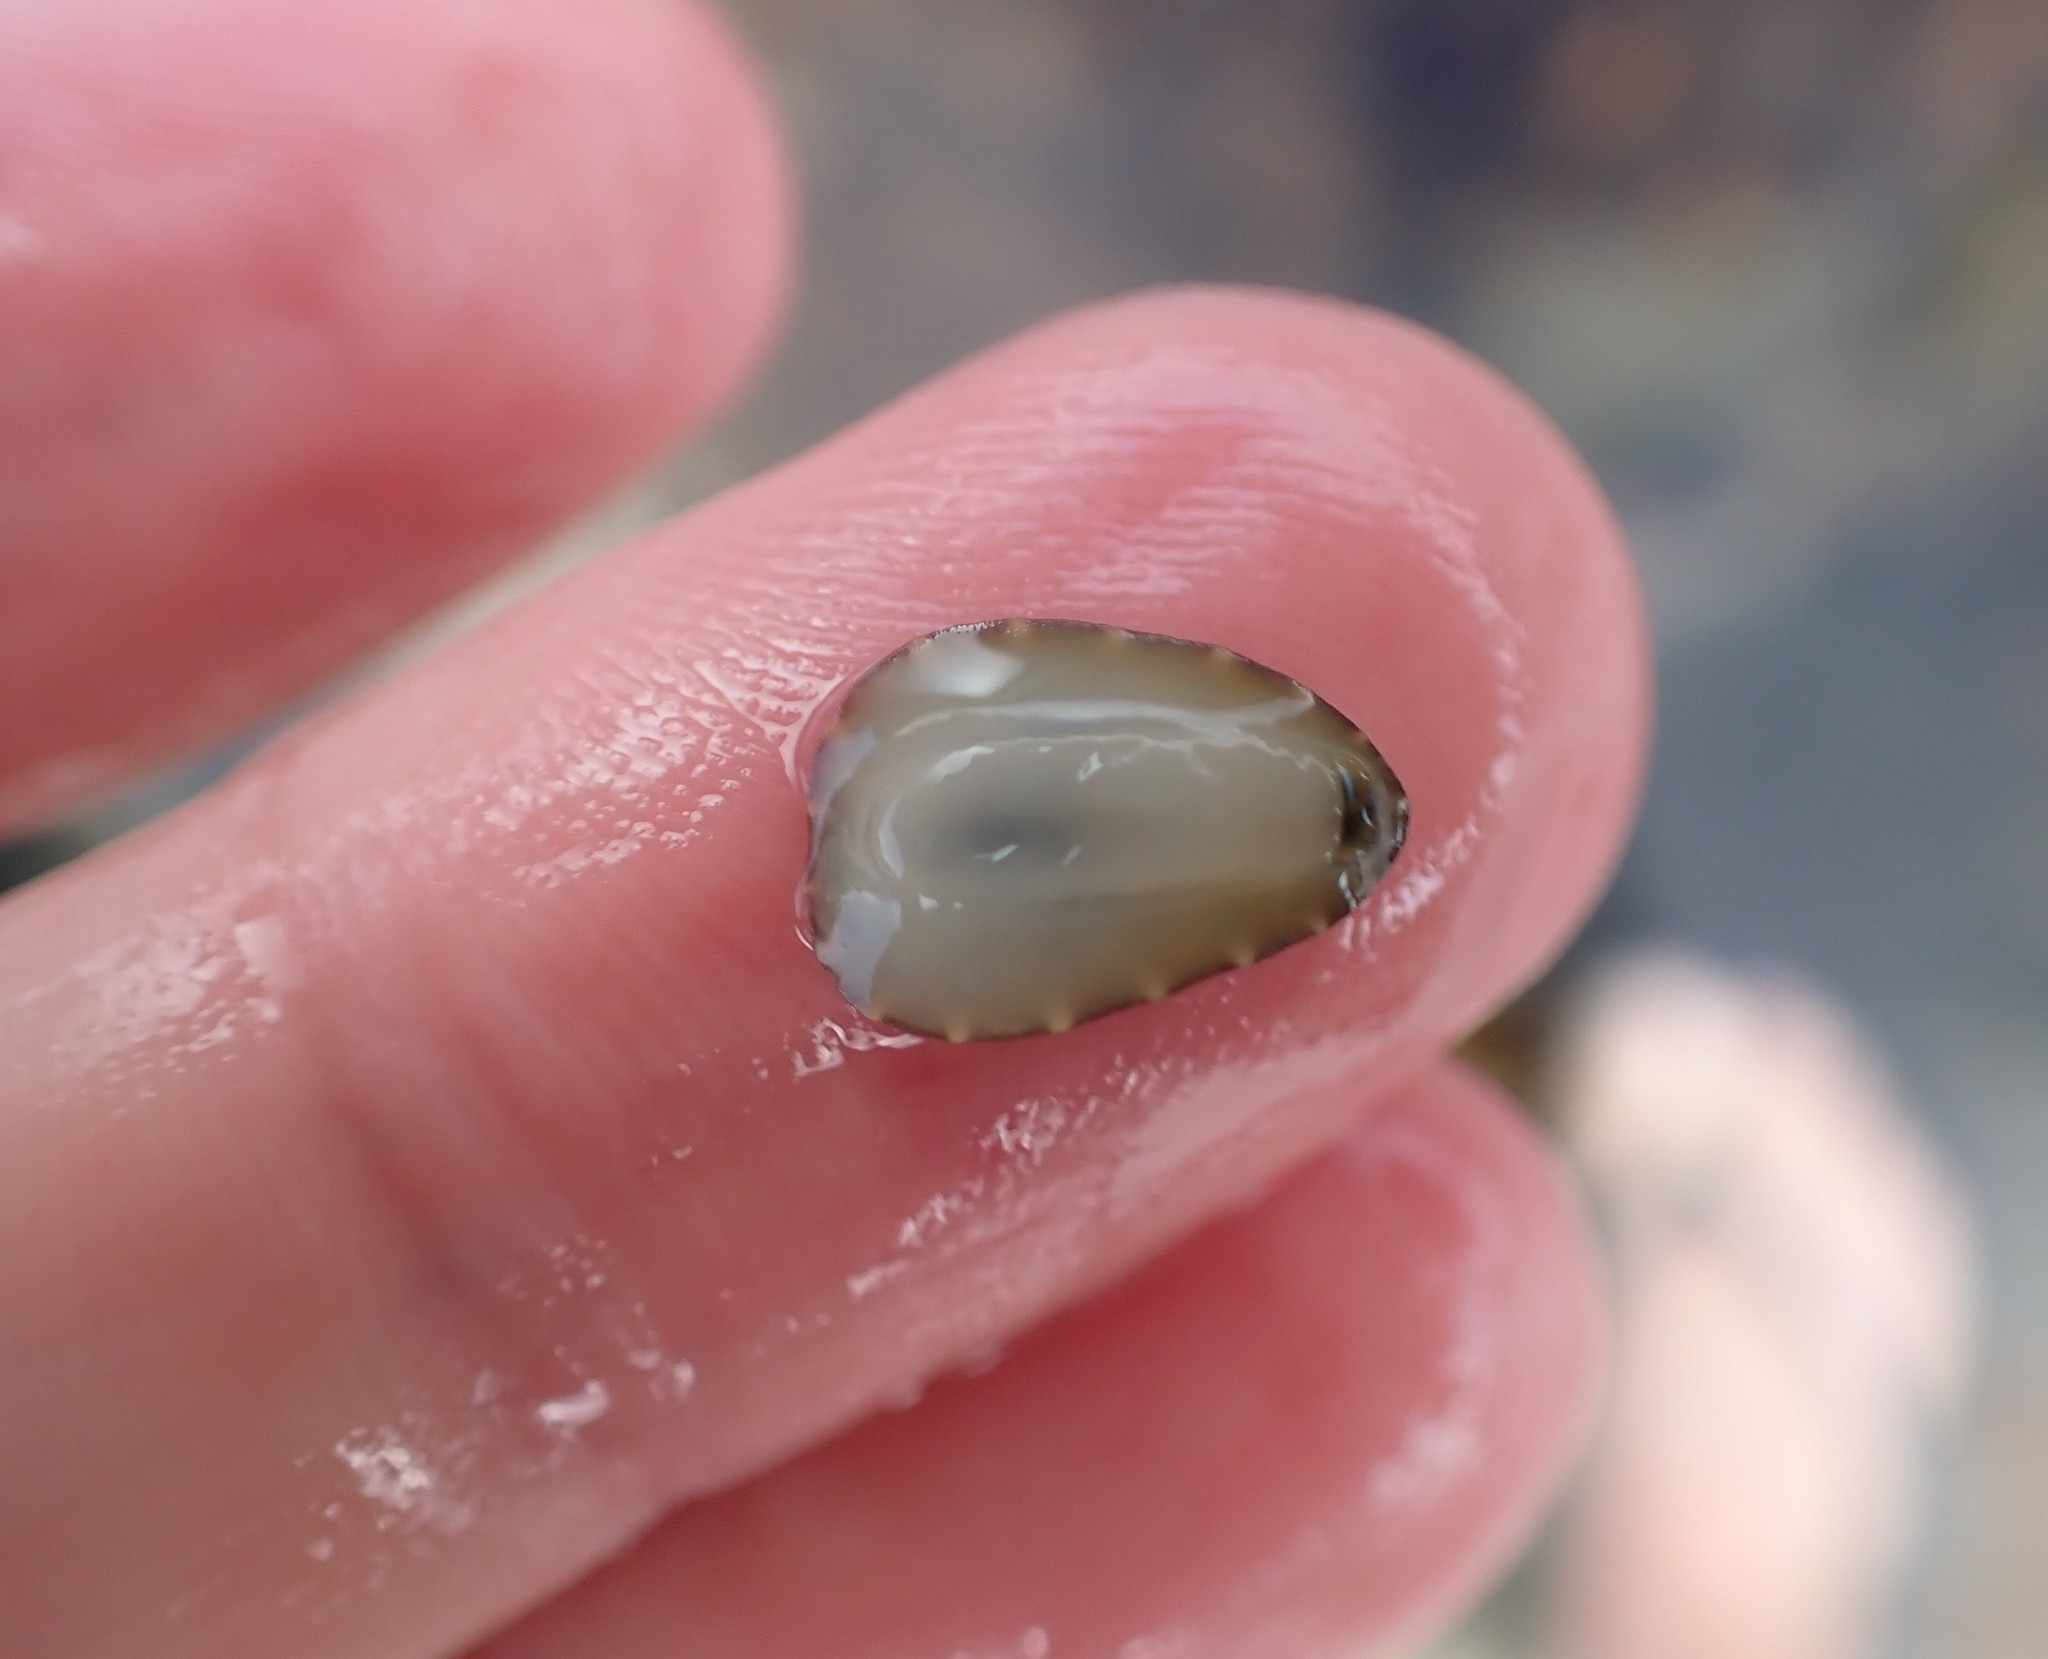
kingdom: Animalia
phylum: Mollusca
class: Gastropoda
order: Systellommatophora
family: Onchidiidae
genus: Onchidella
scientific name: Onchidella nigricans
